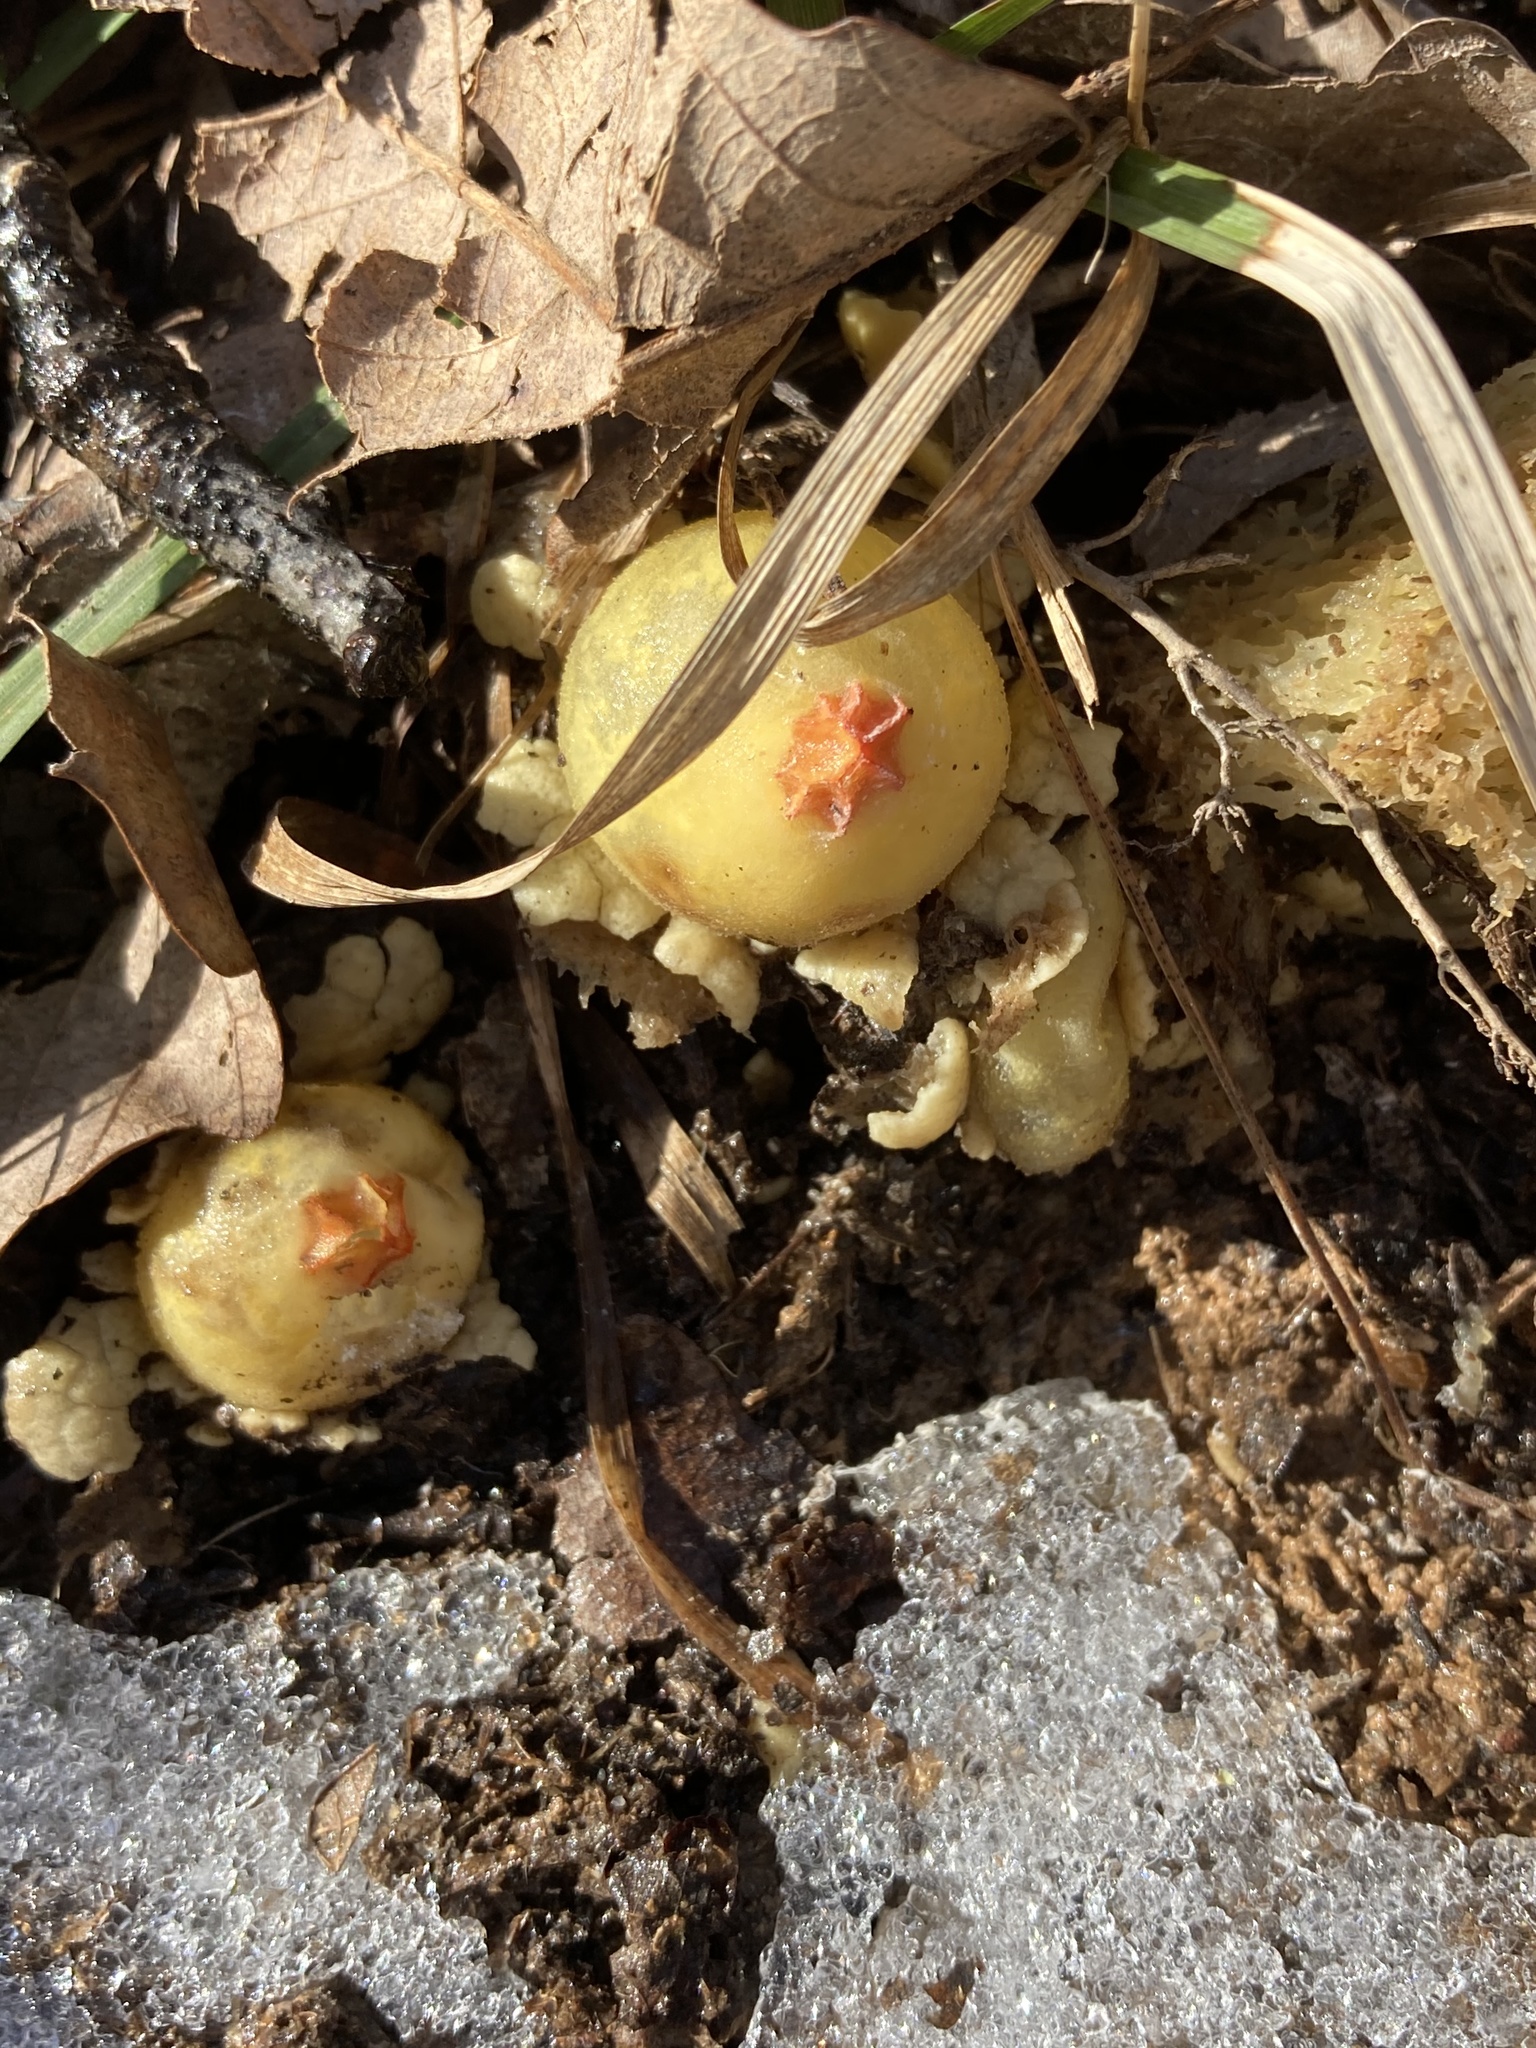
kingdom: Fungi
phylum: Basidiomycota
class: Agaricomycetes
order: Boletales
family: Calostomataceae
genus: Calostoma
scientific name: Calostoma lutescens
